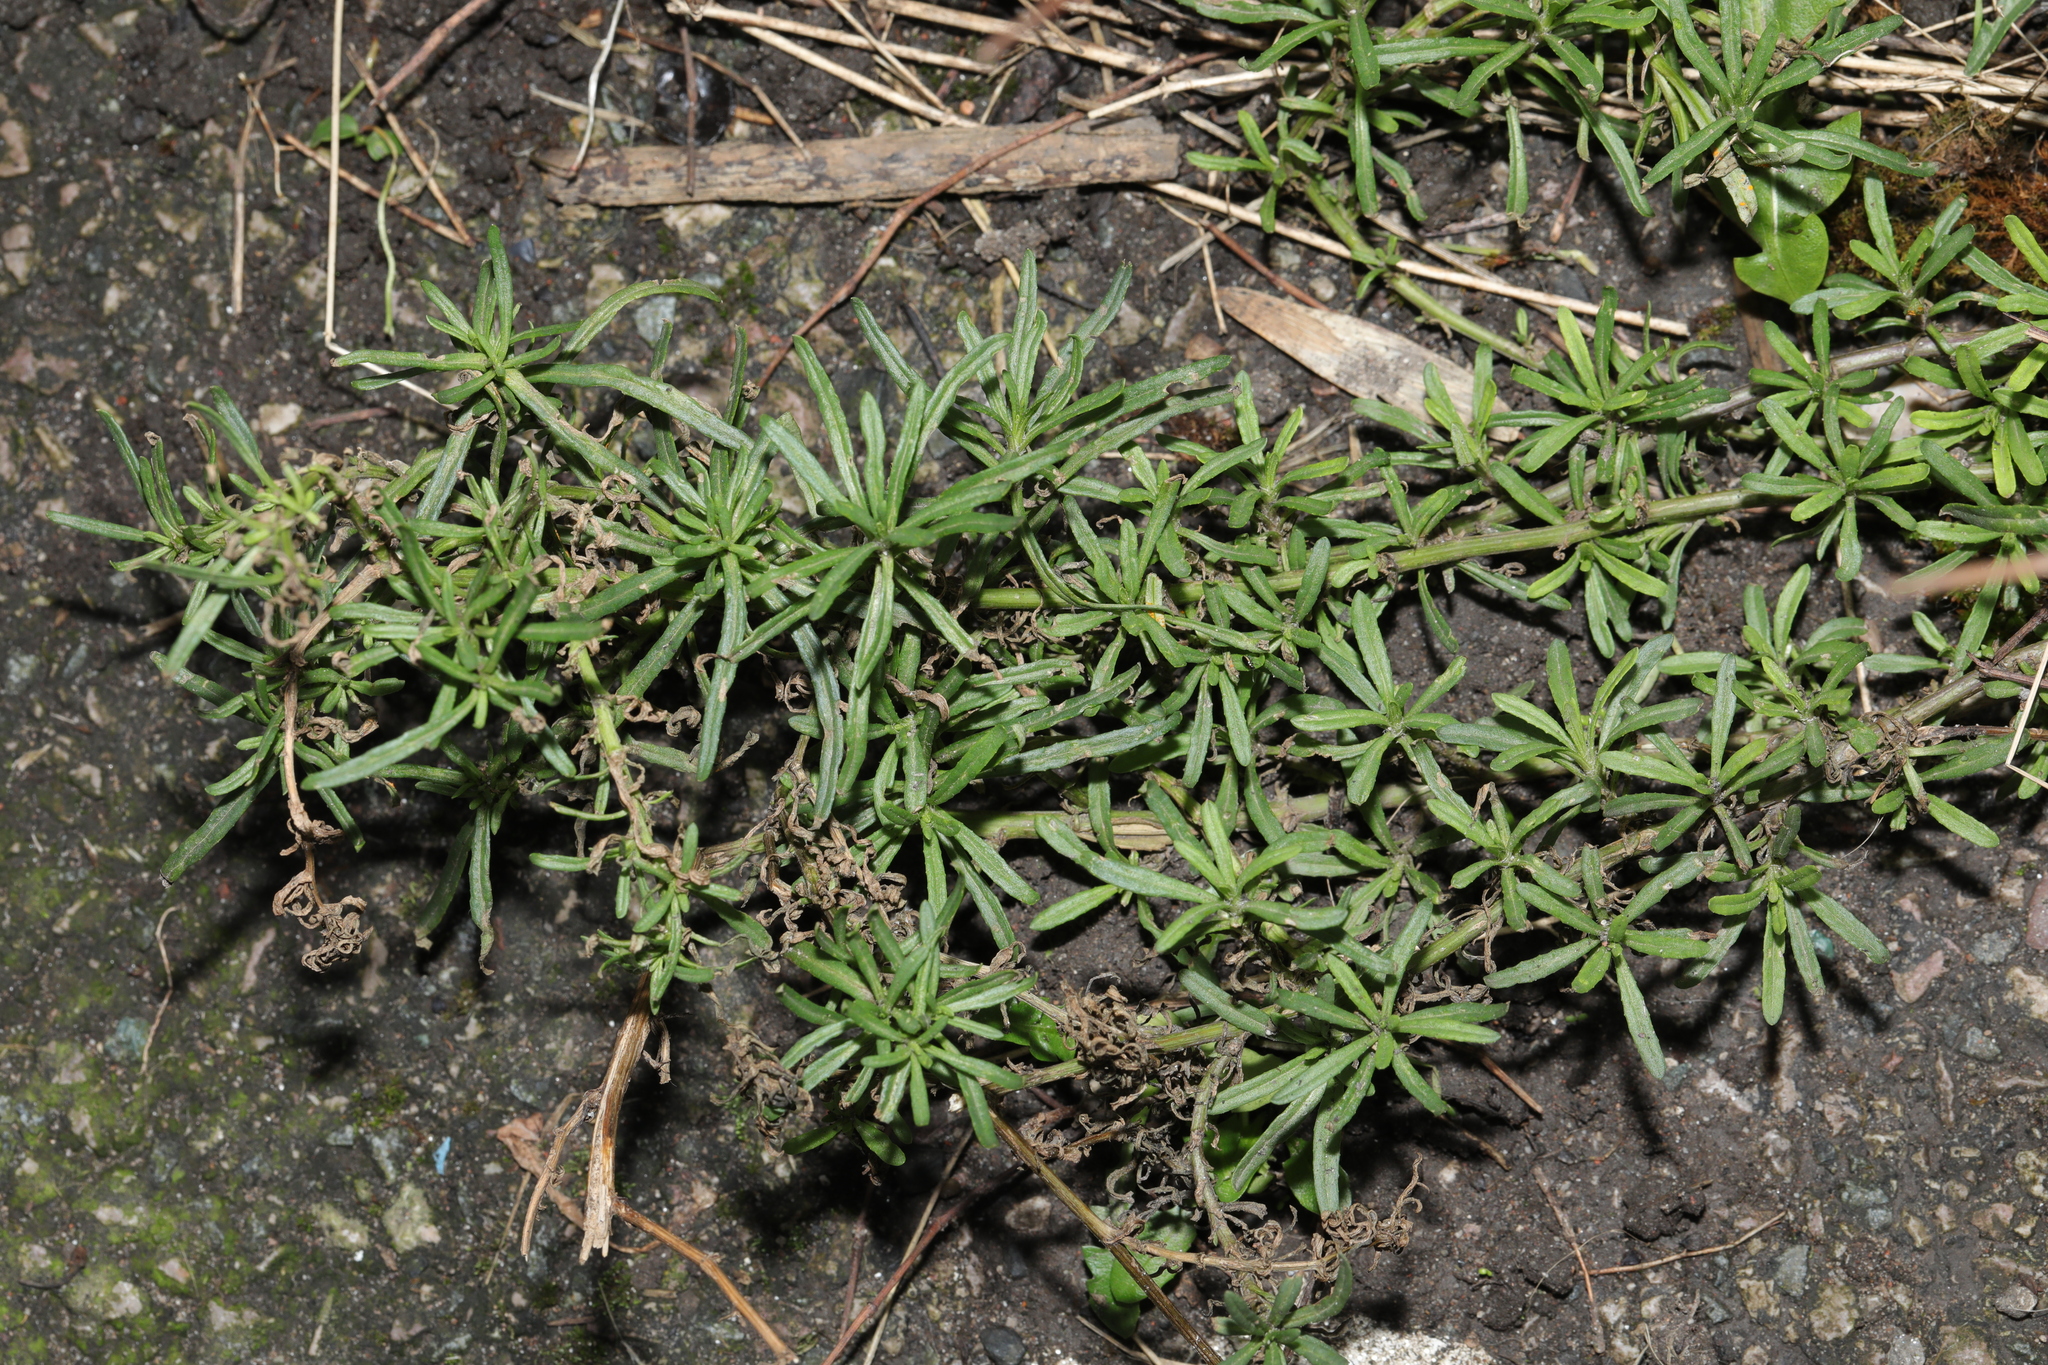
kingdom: Plantae
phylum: Tracheophyta
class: Magnoliopsida
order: Asterales
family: Asteraceae
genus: Senecio
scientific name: Senecio inaequidens
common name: Narrow-leaved ragwort
